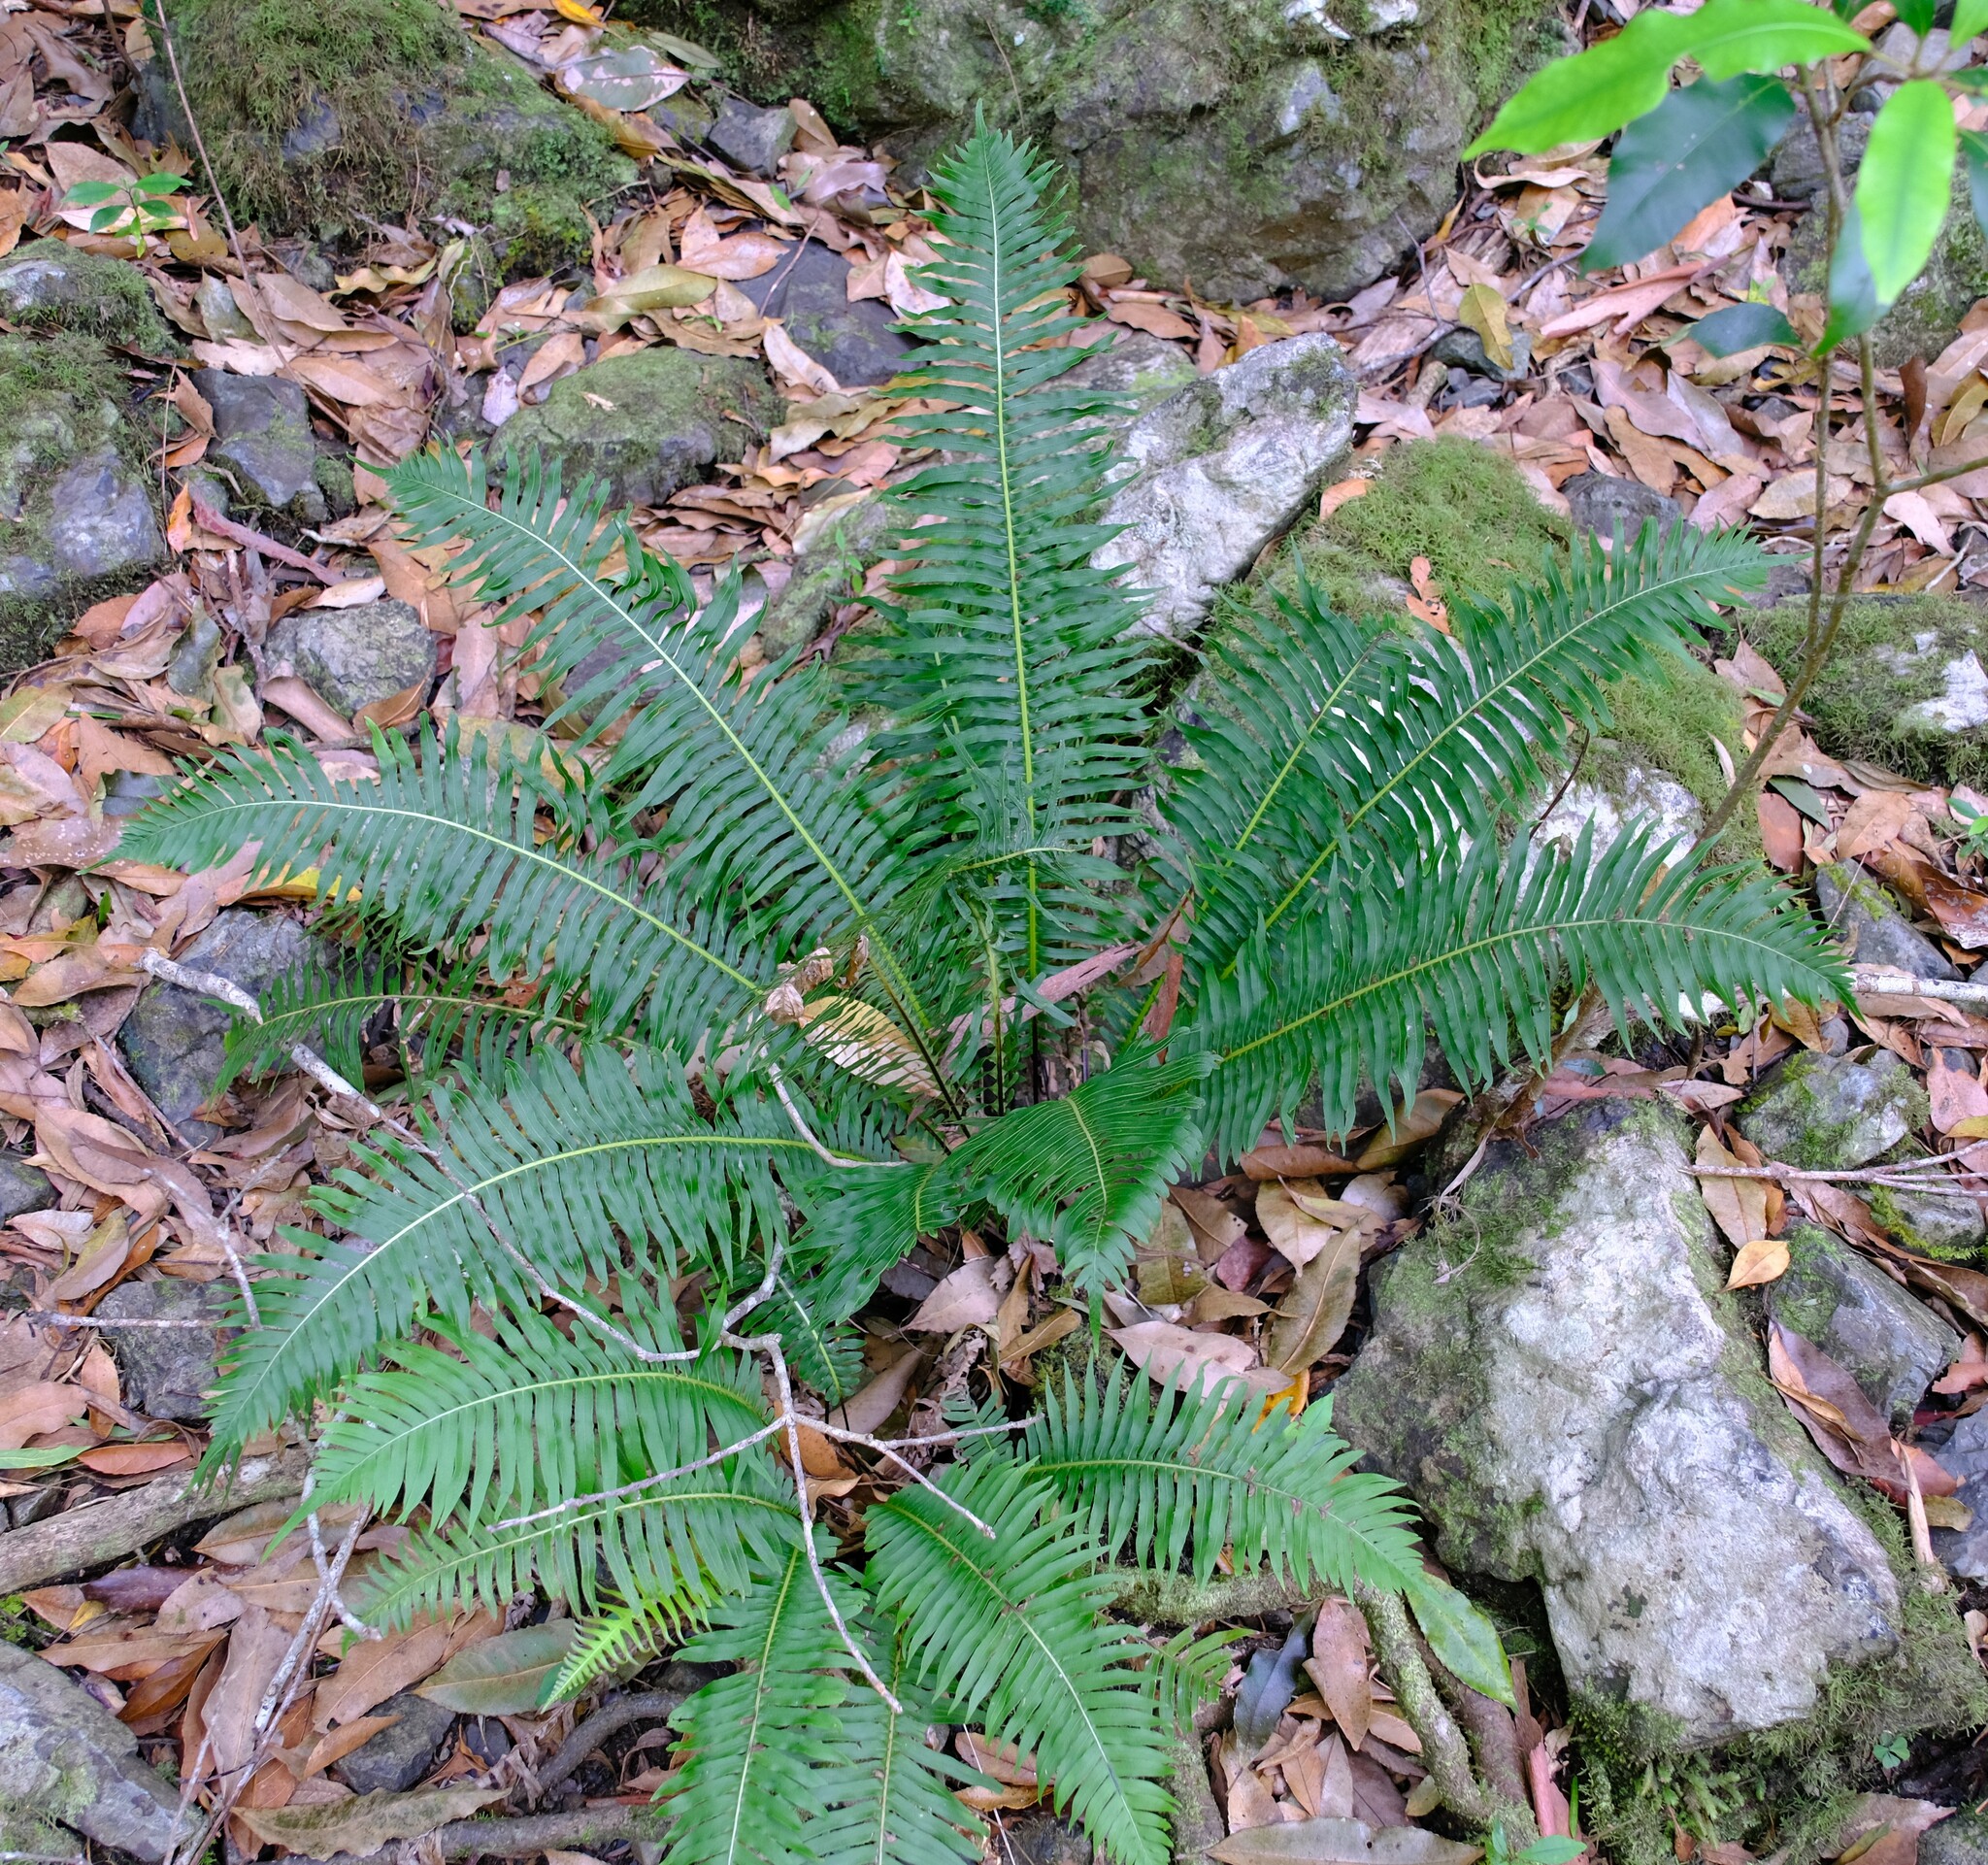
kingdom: Plantae
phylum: Tracheophyta
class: Polypodiopsida
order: Polypodiales
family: Blechnaceae
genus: Lomaria
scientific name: Lomaria nuda
